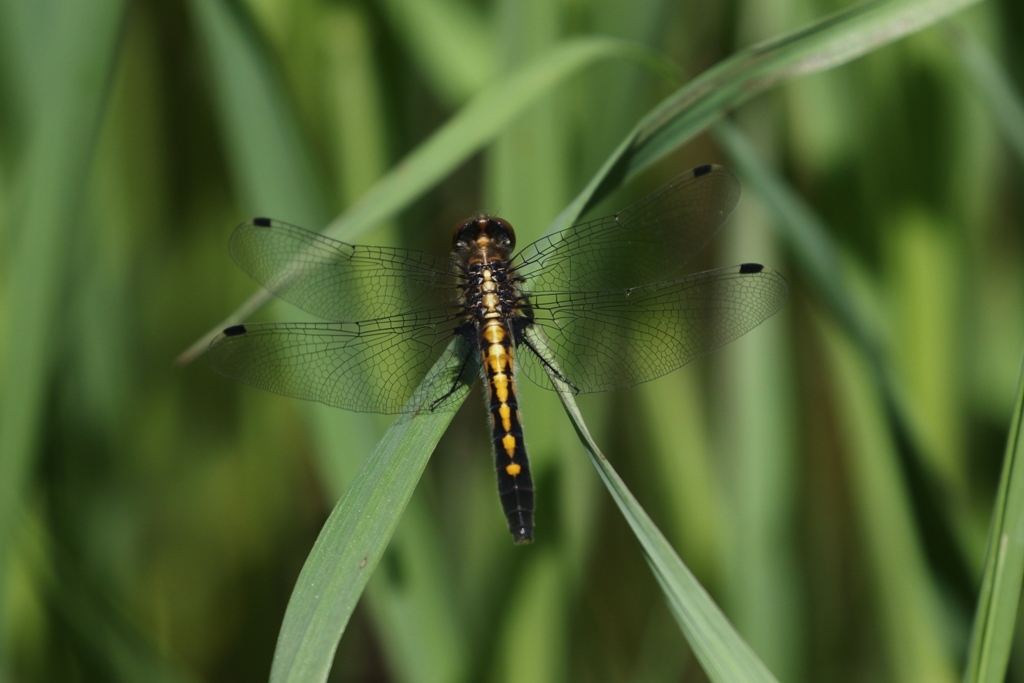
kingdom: Animalia
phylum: Arthropoda
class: Insecta
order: Odonata
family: Libellulidae
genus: Leucorrhinia
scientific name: Leucorrhinia intacta
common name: Dot-tailed whiteface
